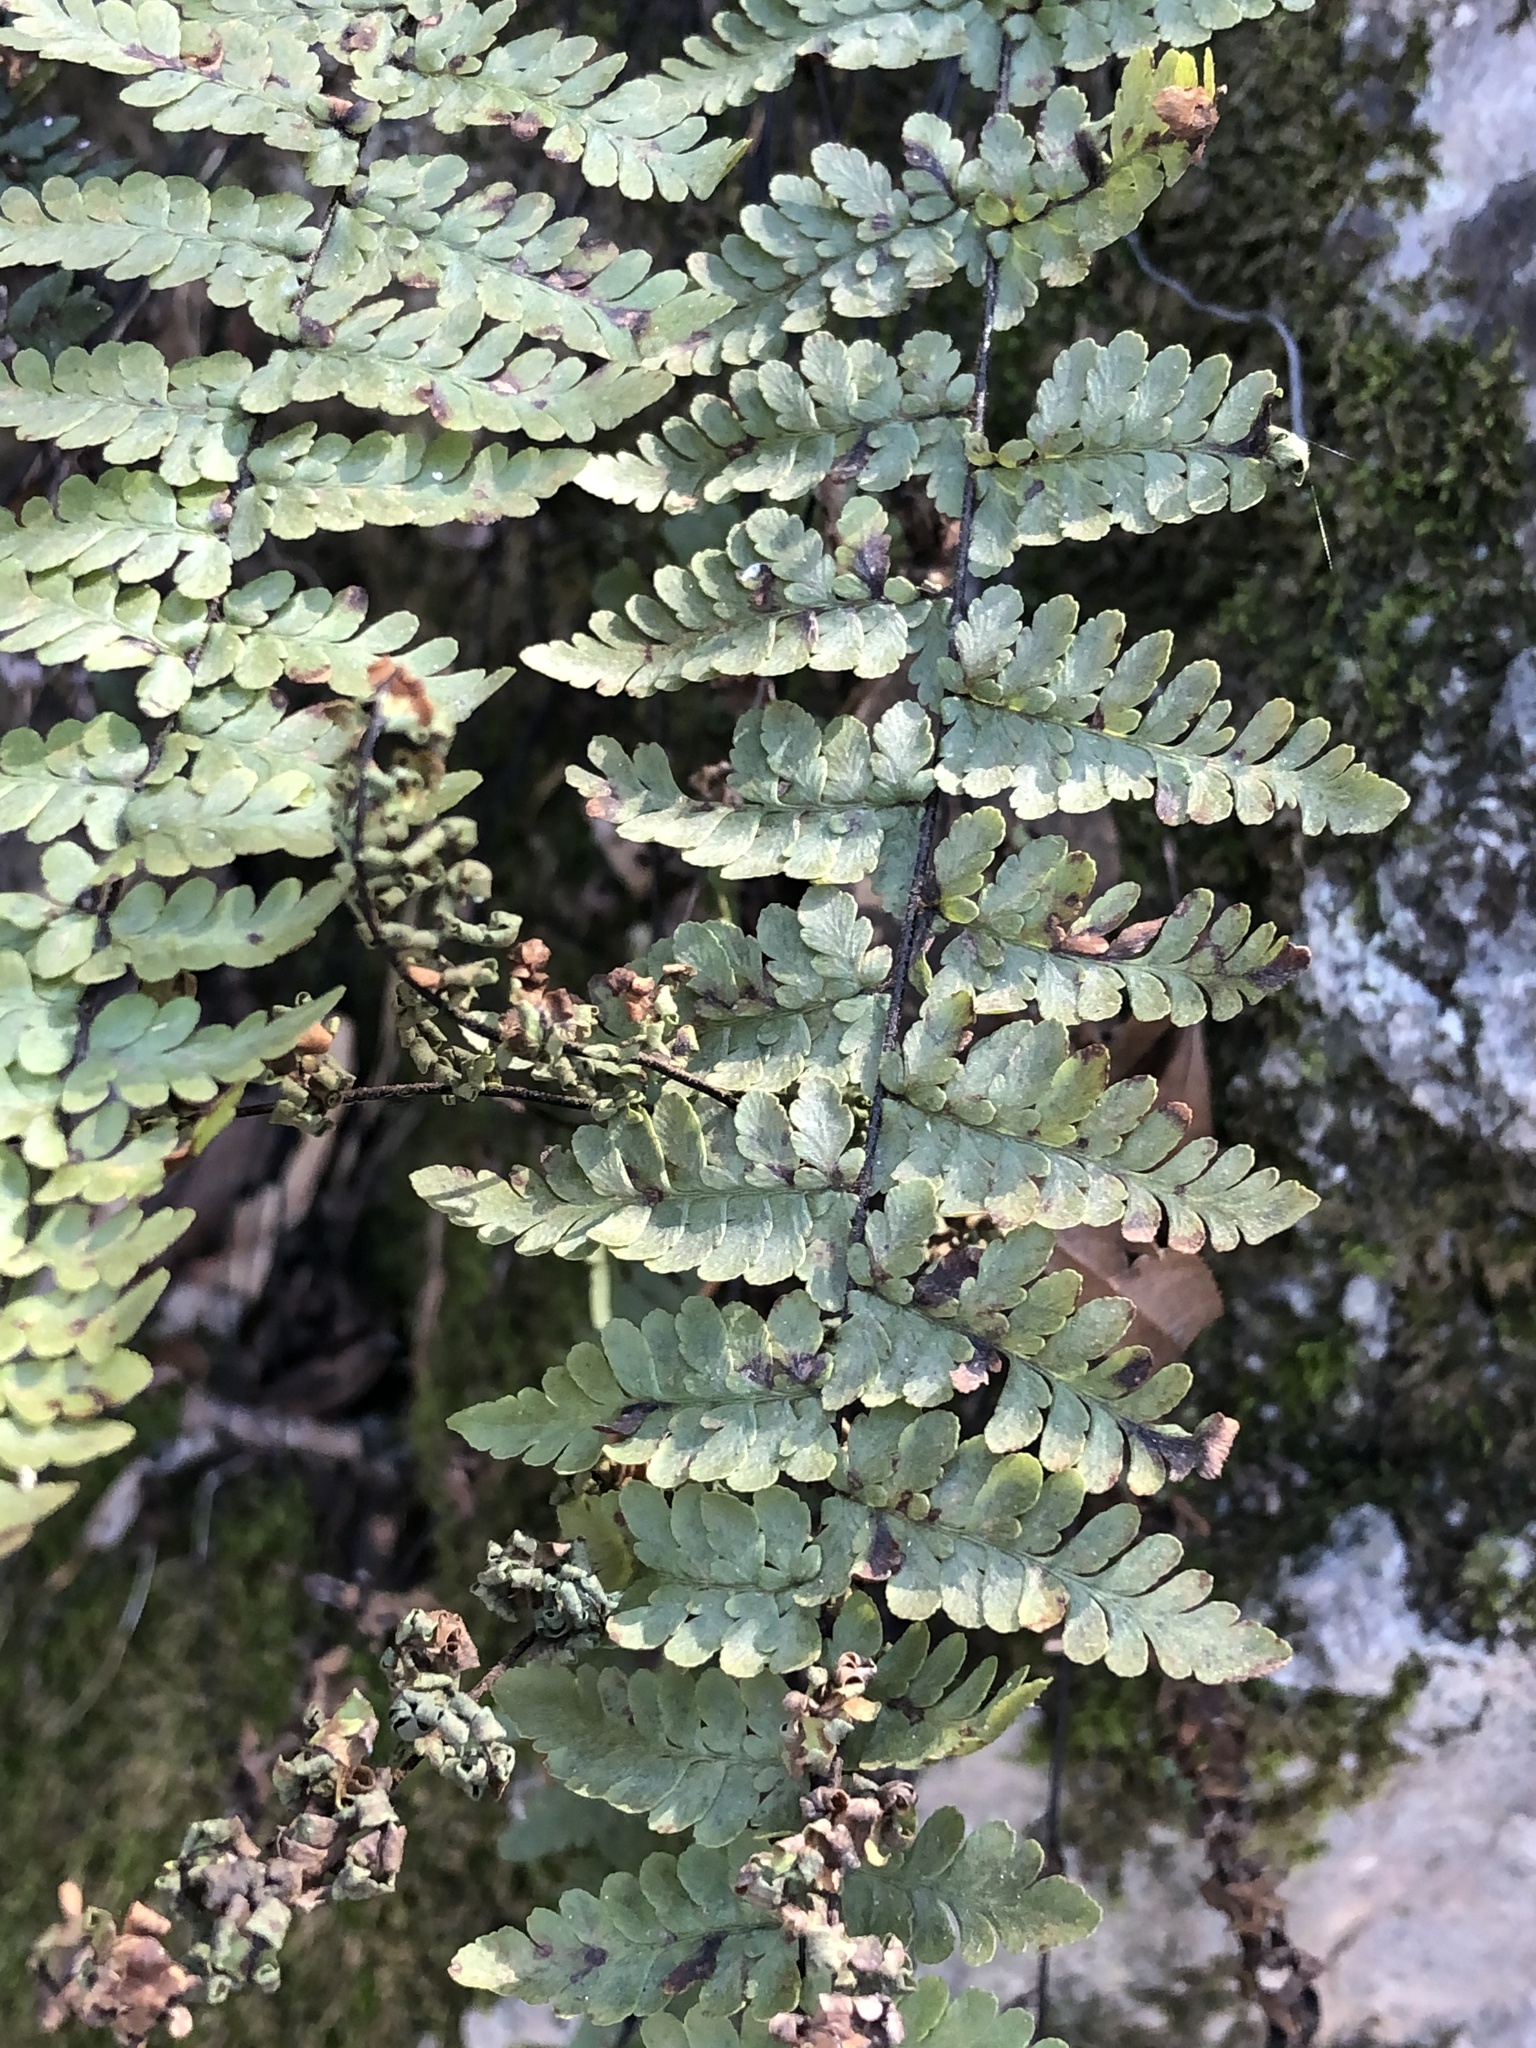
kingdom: Plantae
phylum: Tracheophyta
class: Polypodiopsida
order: Polypodiales
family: Pteridaceae
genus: Myriopteris
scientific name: Myriopteris alabamensis
